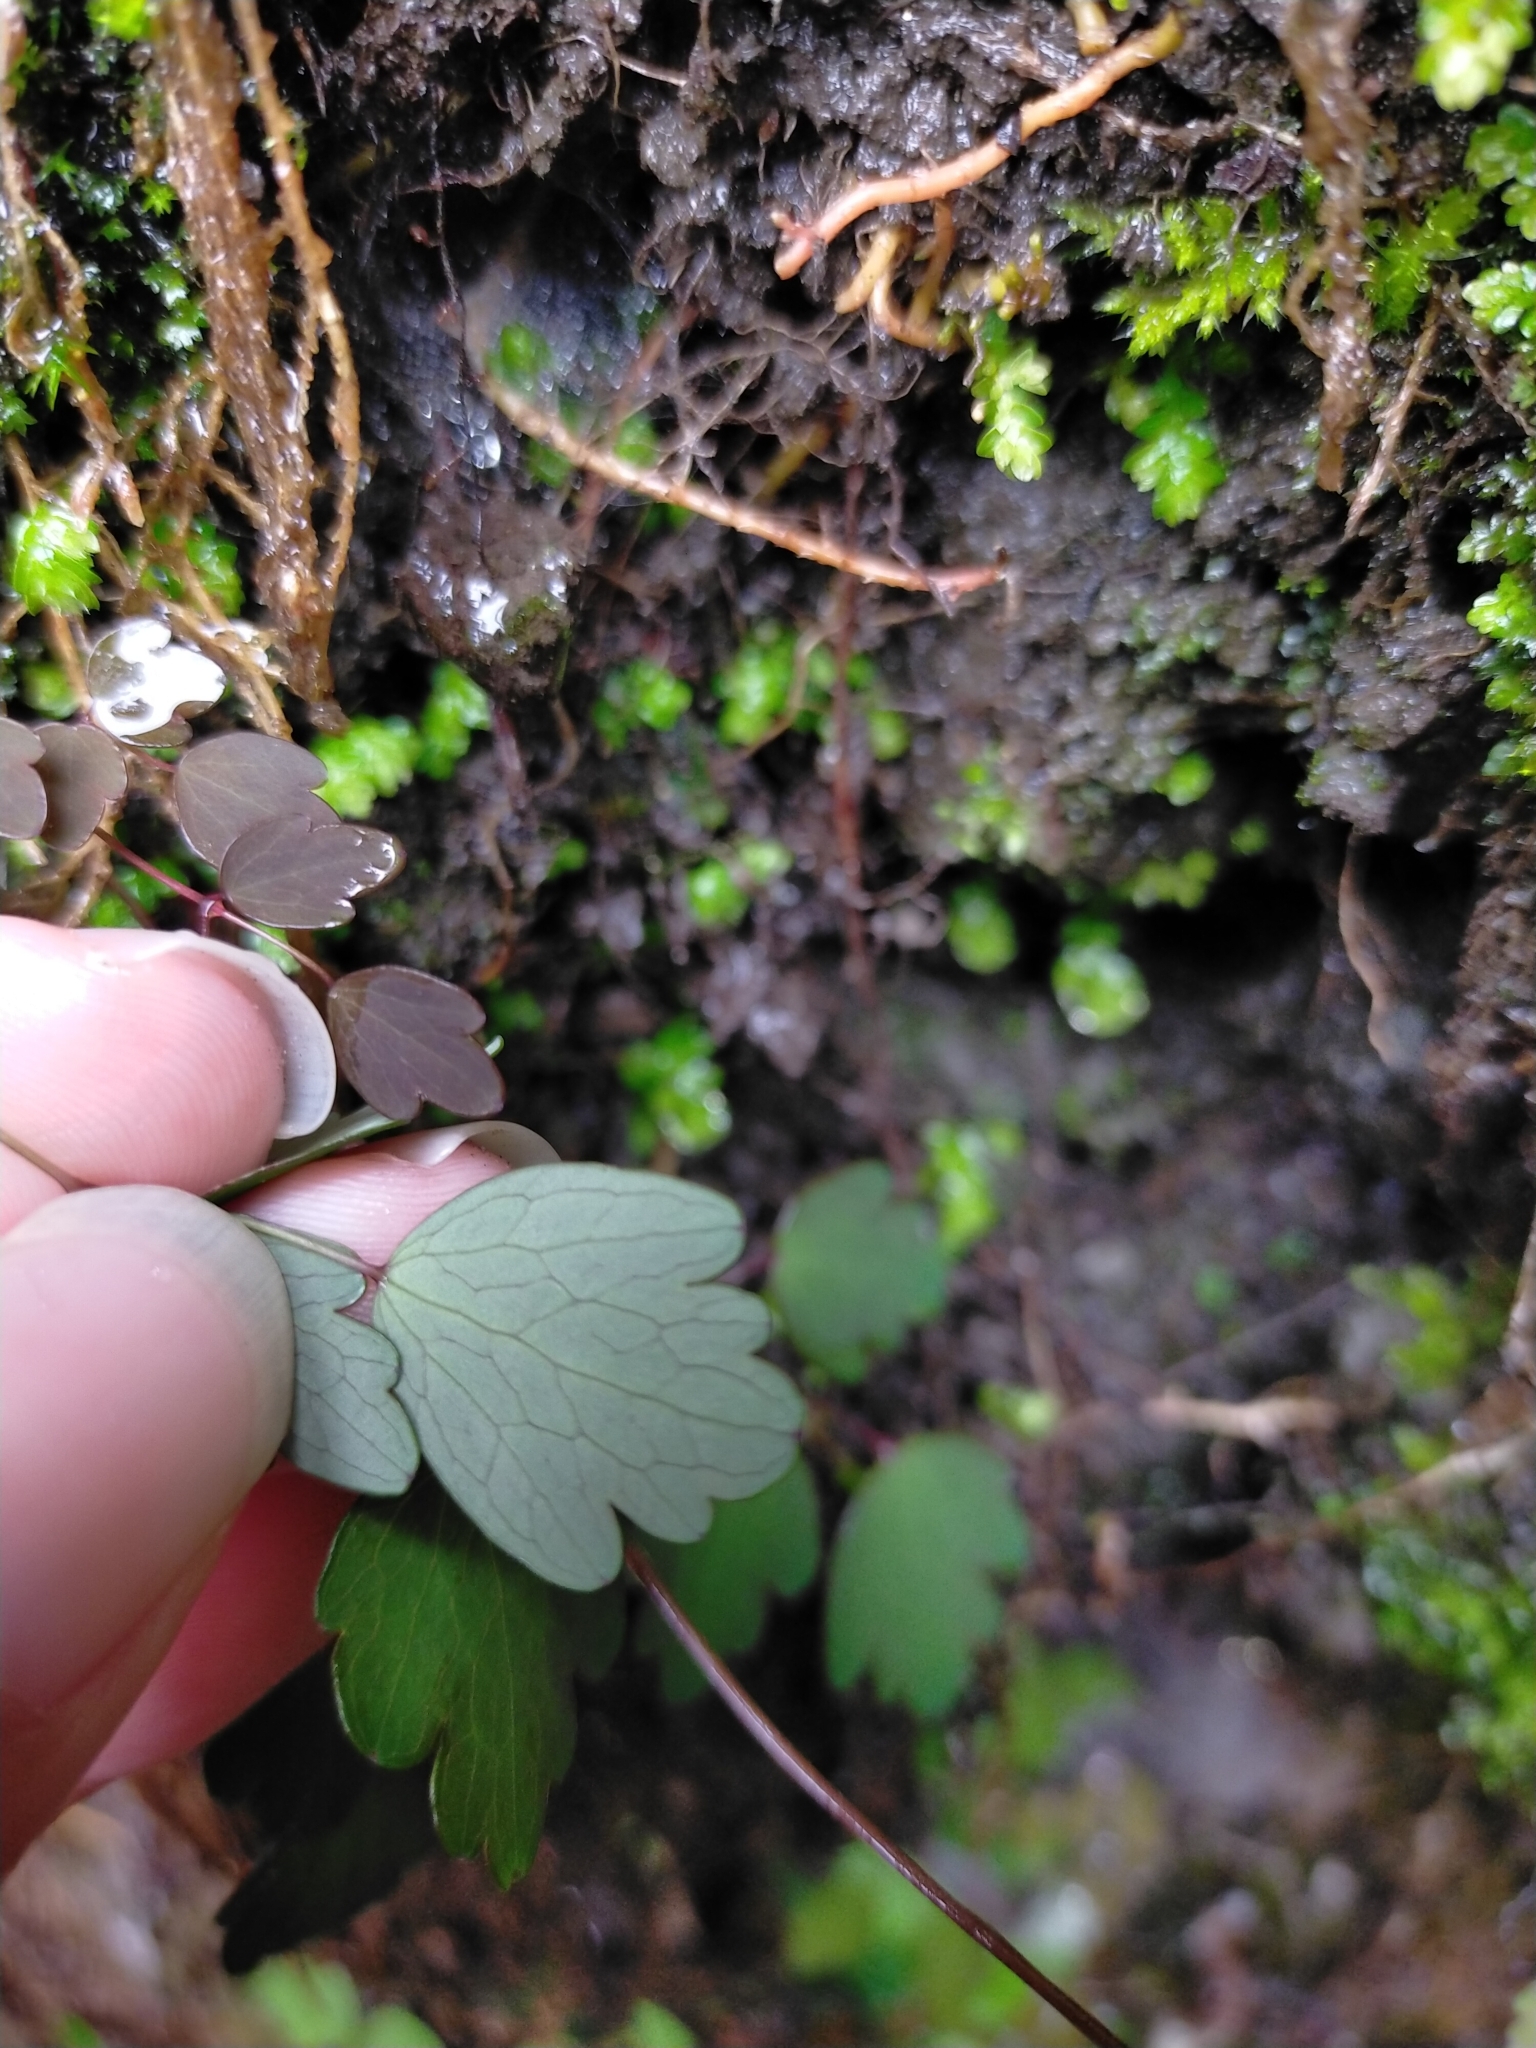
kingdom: Plantae
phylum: Tracheophyta
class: Magnoliopsida
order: Ranunculales
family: Ranunculaceae
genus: Thalictrum
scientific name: Thalictrum urbaini
